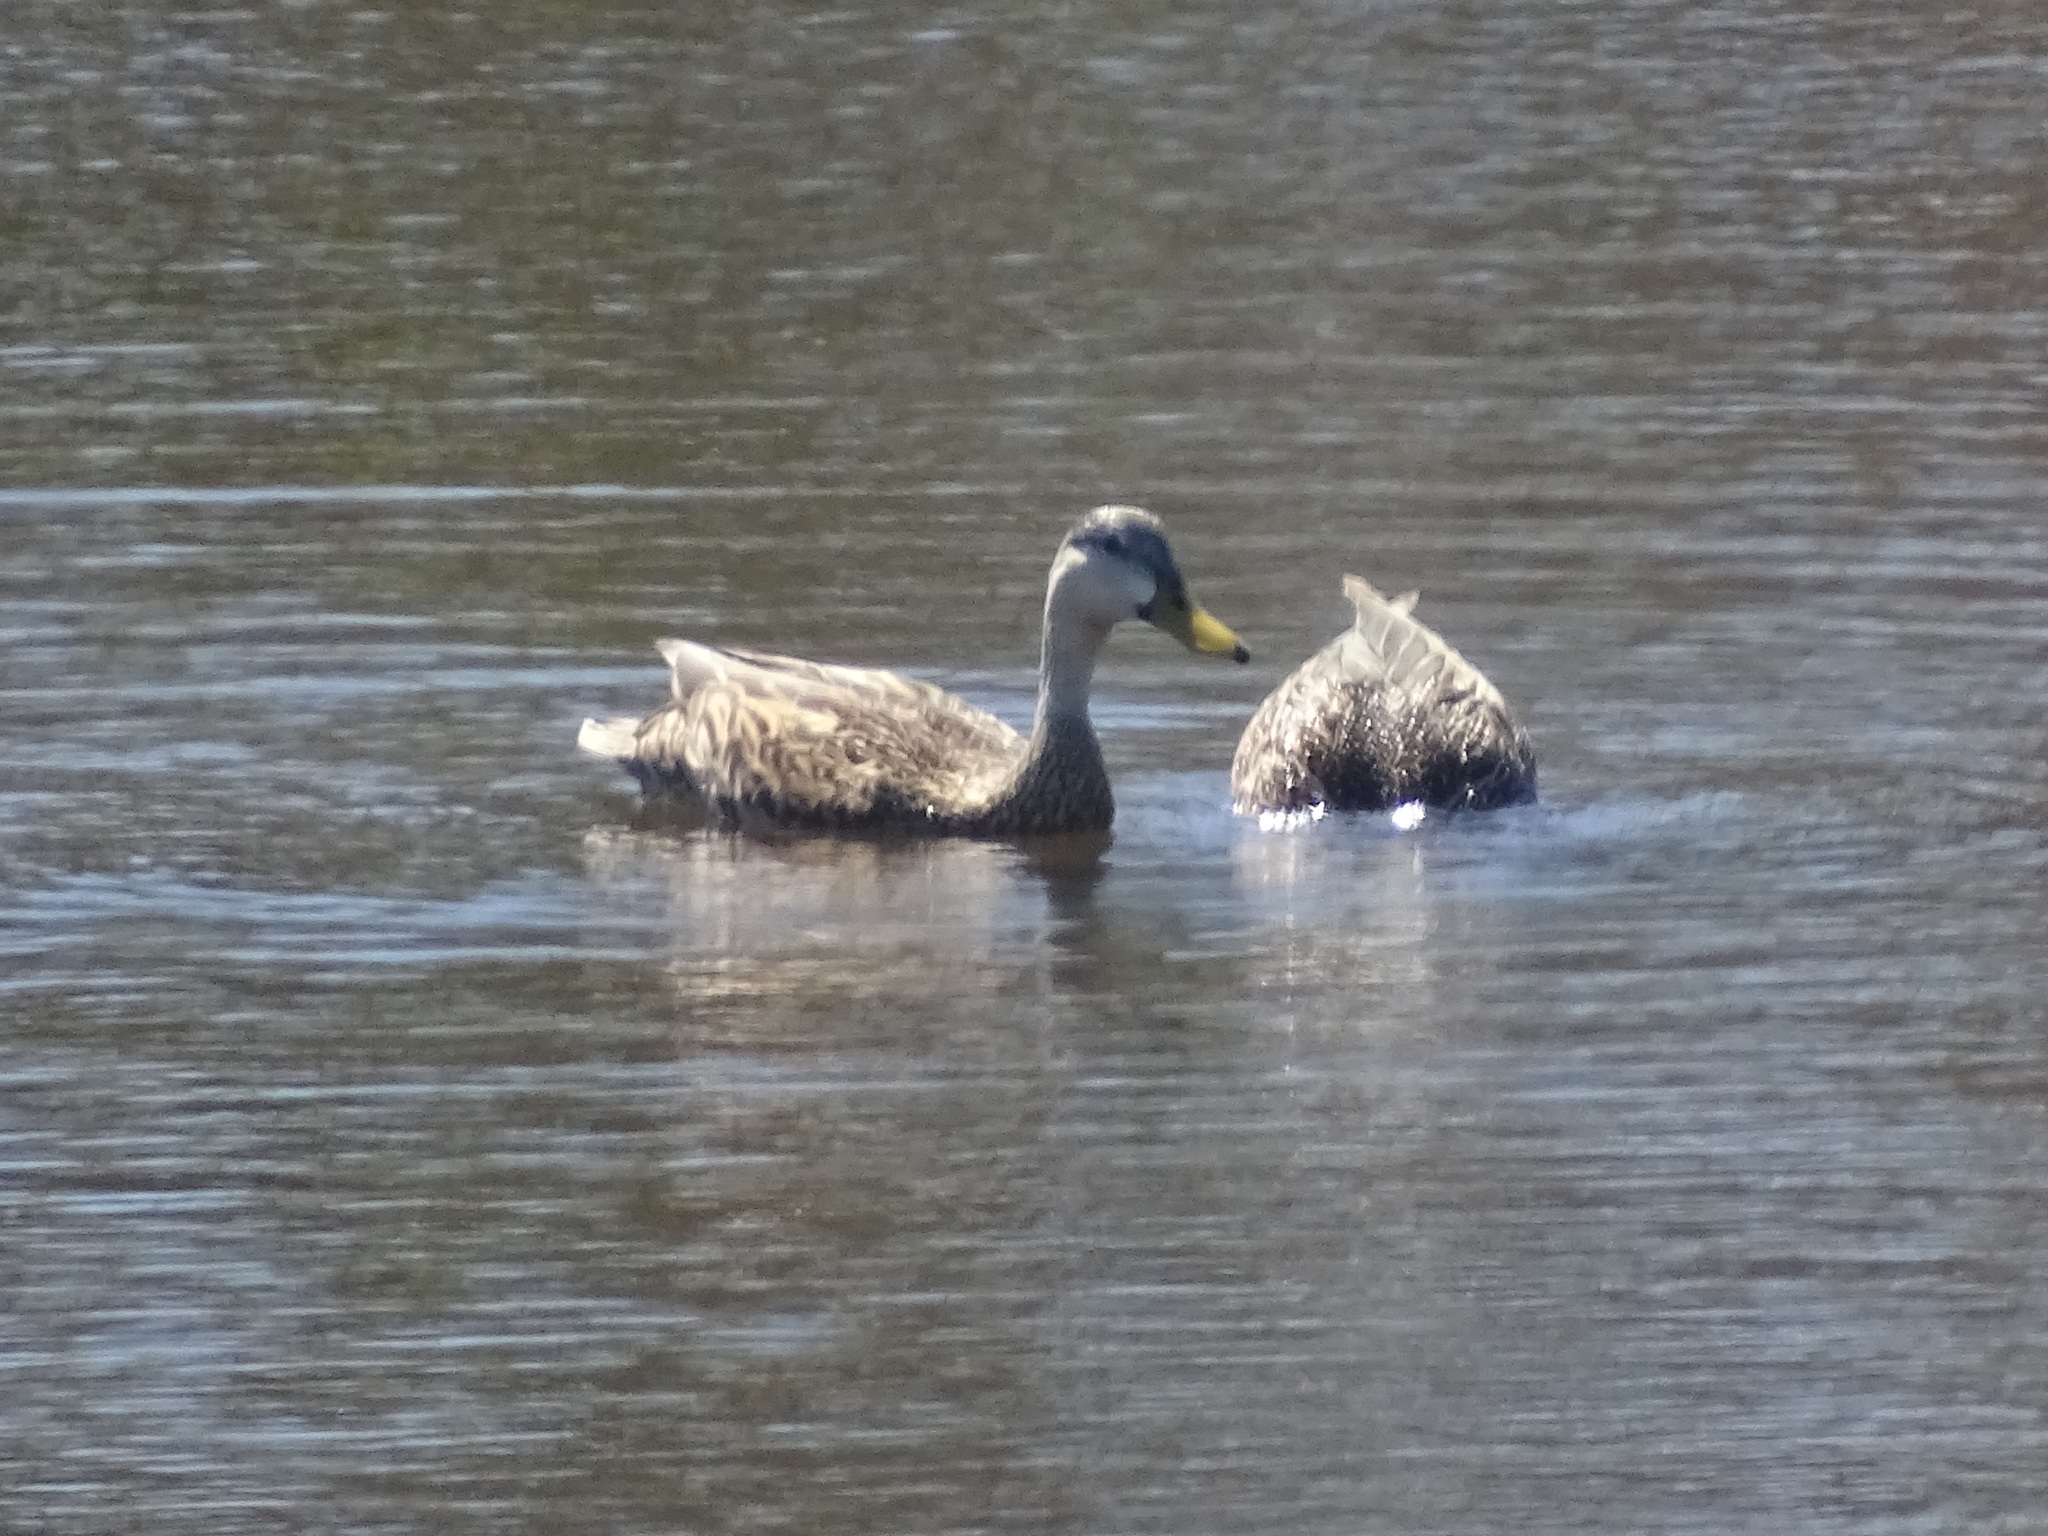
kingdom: Animalia
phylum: Chordata
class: Aves
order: Anseriformes
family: Anatidae
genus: Anas
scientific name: Anas
